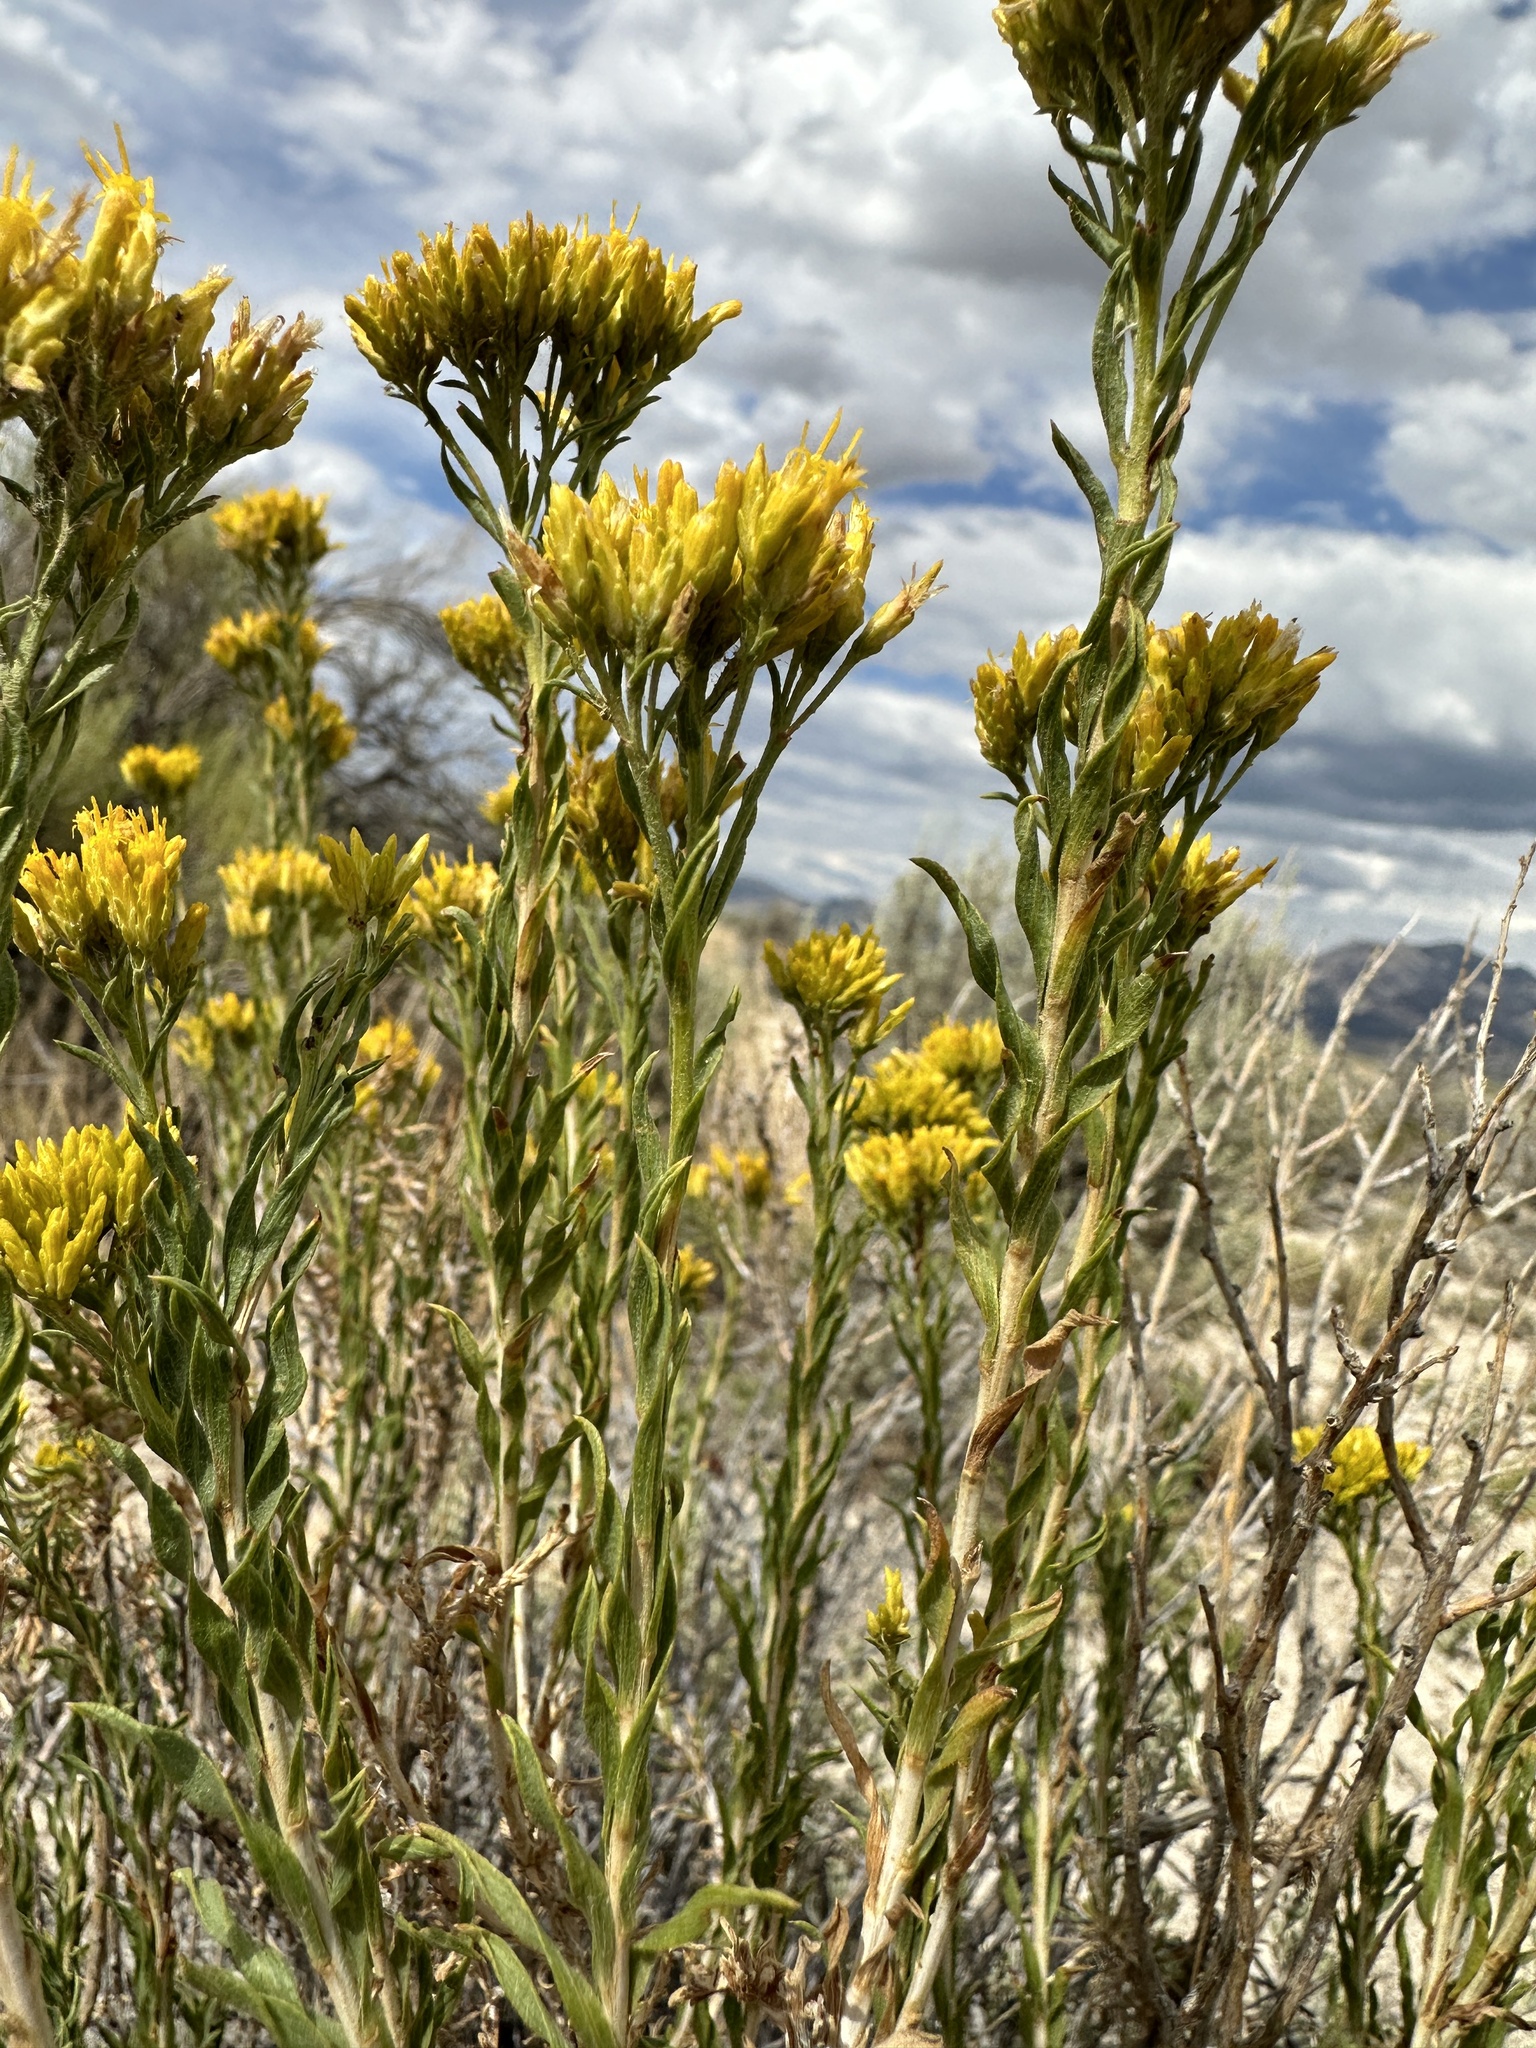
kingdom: Plantae
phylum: Tracheophyta
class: Magnoliopsida
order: Asterales
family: Asteraceae
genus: Chrysothamnus
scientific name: Chrysothamnus viscidiflorus
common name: Yellow rabbitbrush
